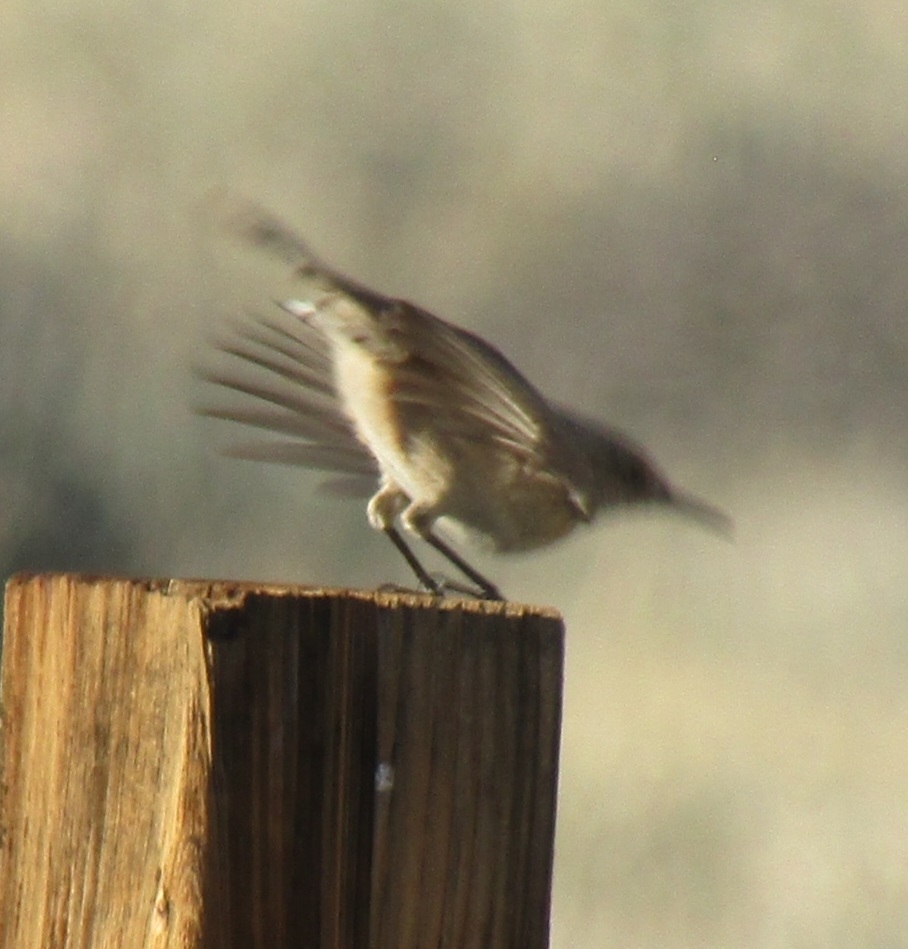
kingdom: Animalia
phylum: Chordata
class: Aves
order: Passeriformes
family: Troglodytidae
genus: Salpinctes
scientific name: Salpinctes obsoletus
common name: Rock wren
